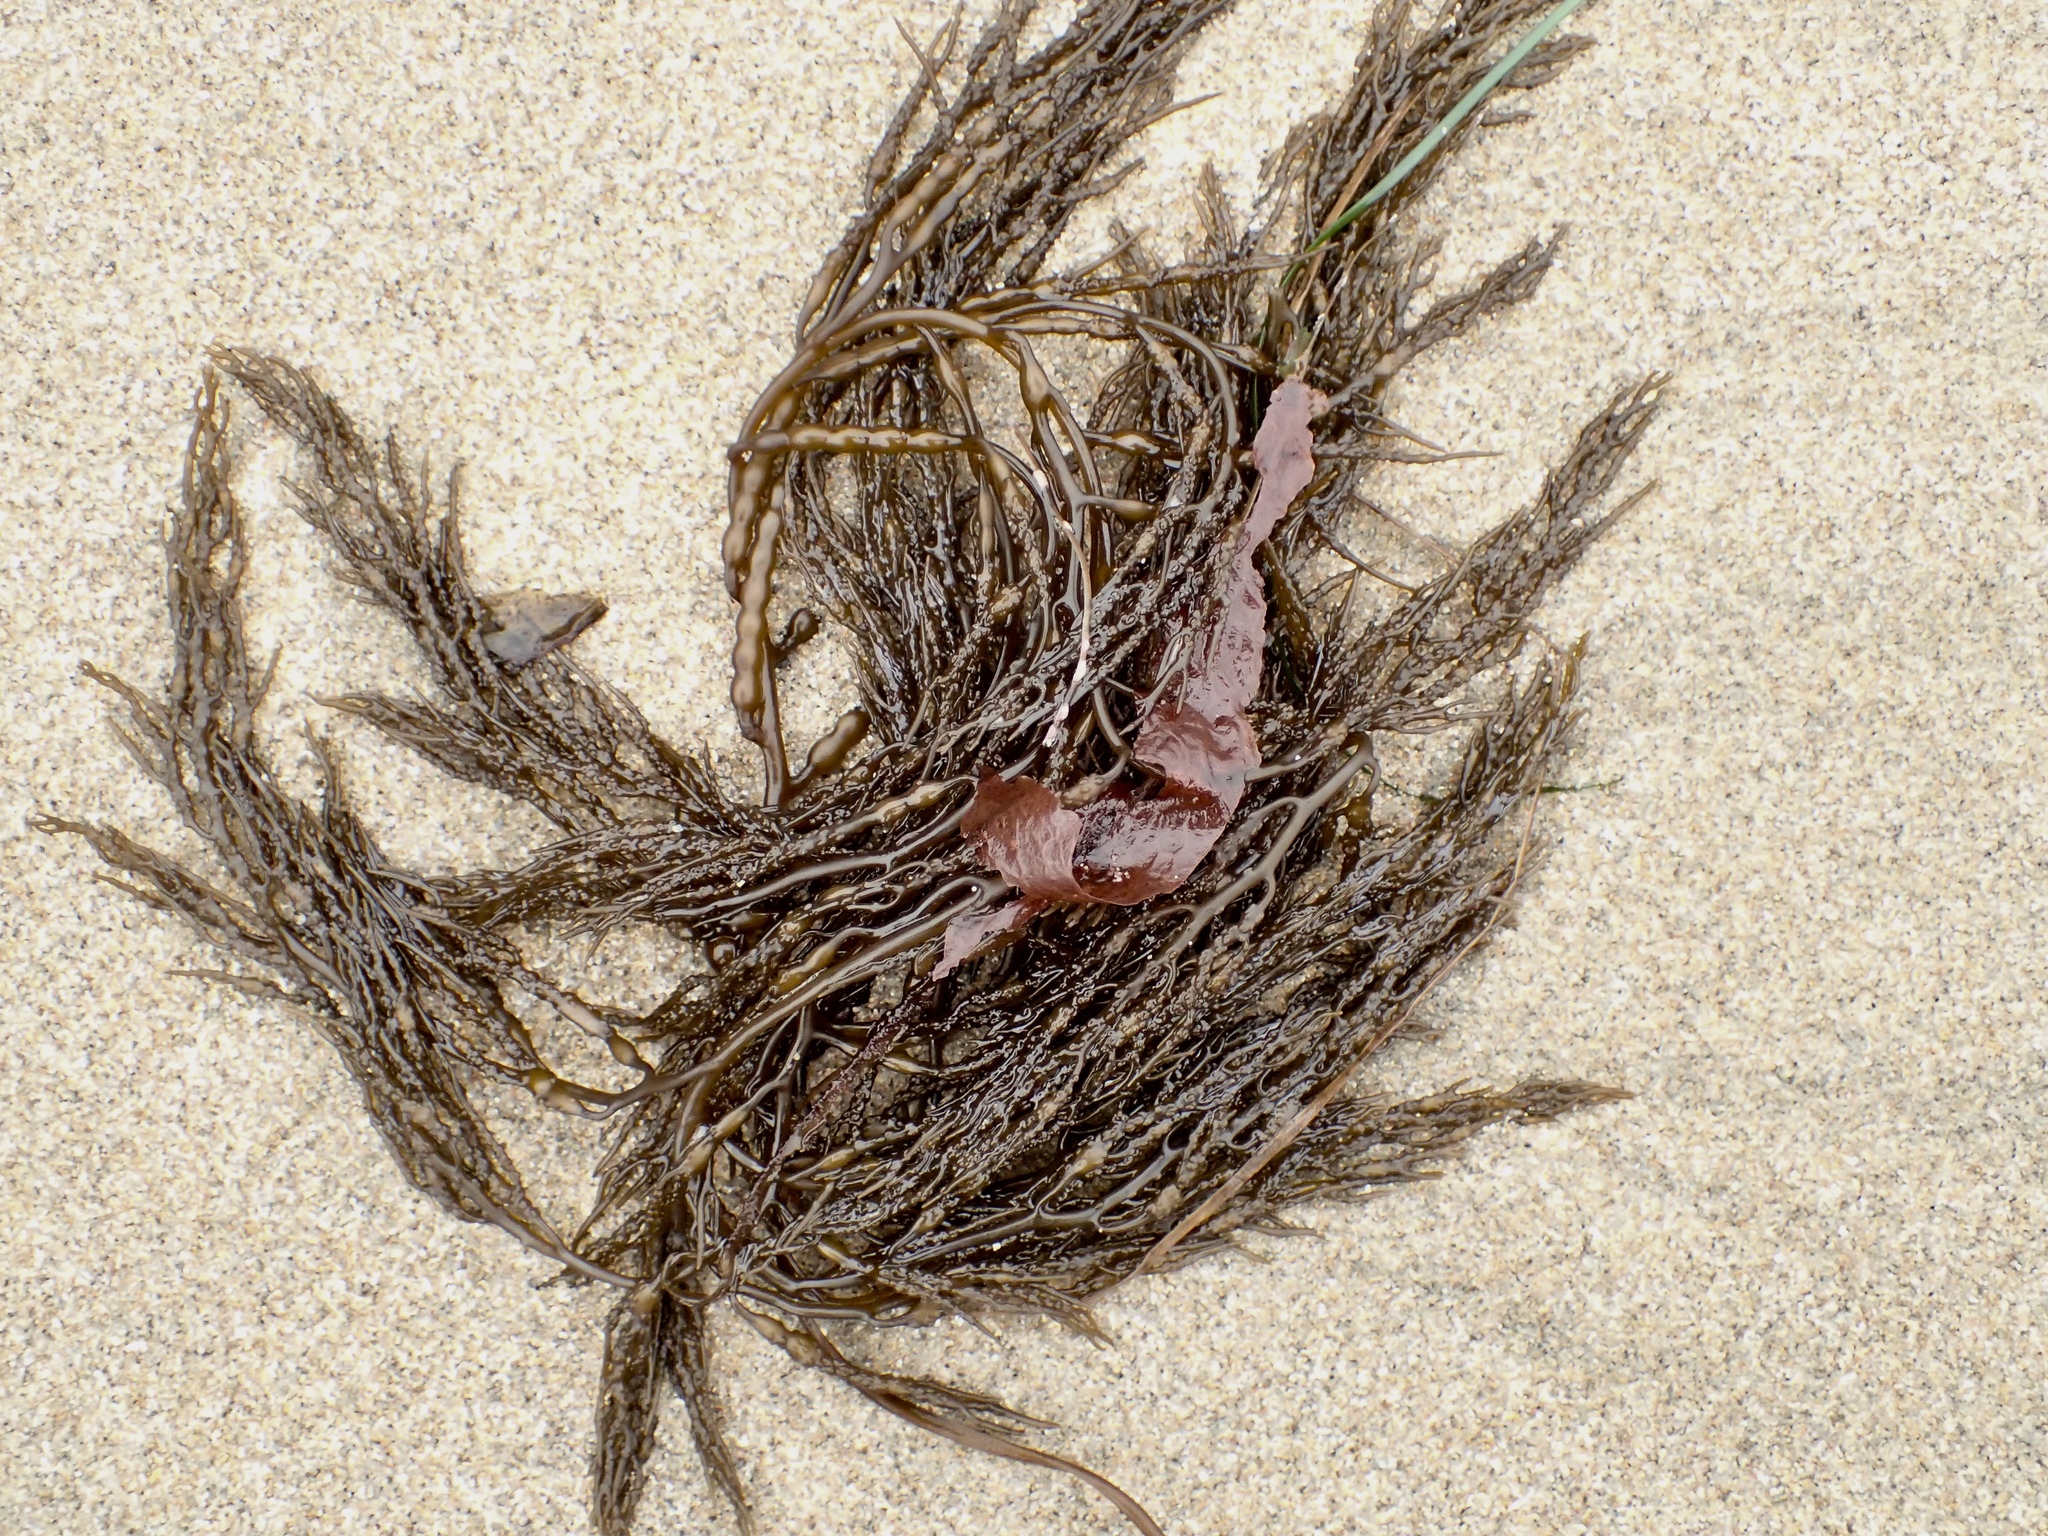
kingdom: Chromista
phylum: Ochrophyta
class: Phaeophyceae
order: Fucales
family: Sargassaceae
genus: Stephanocystis
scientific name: Stephanocystis
